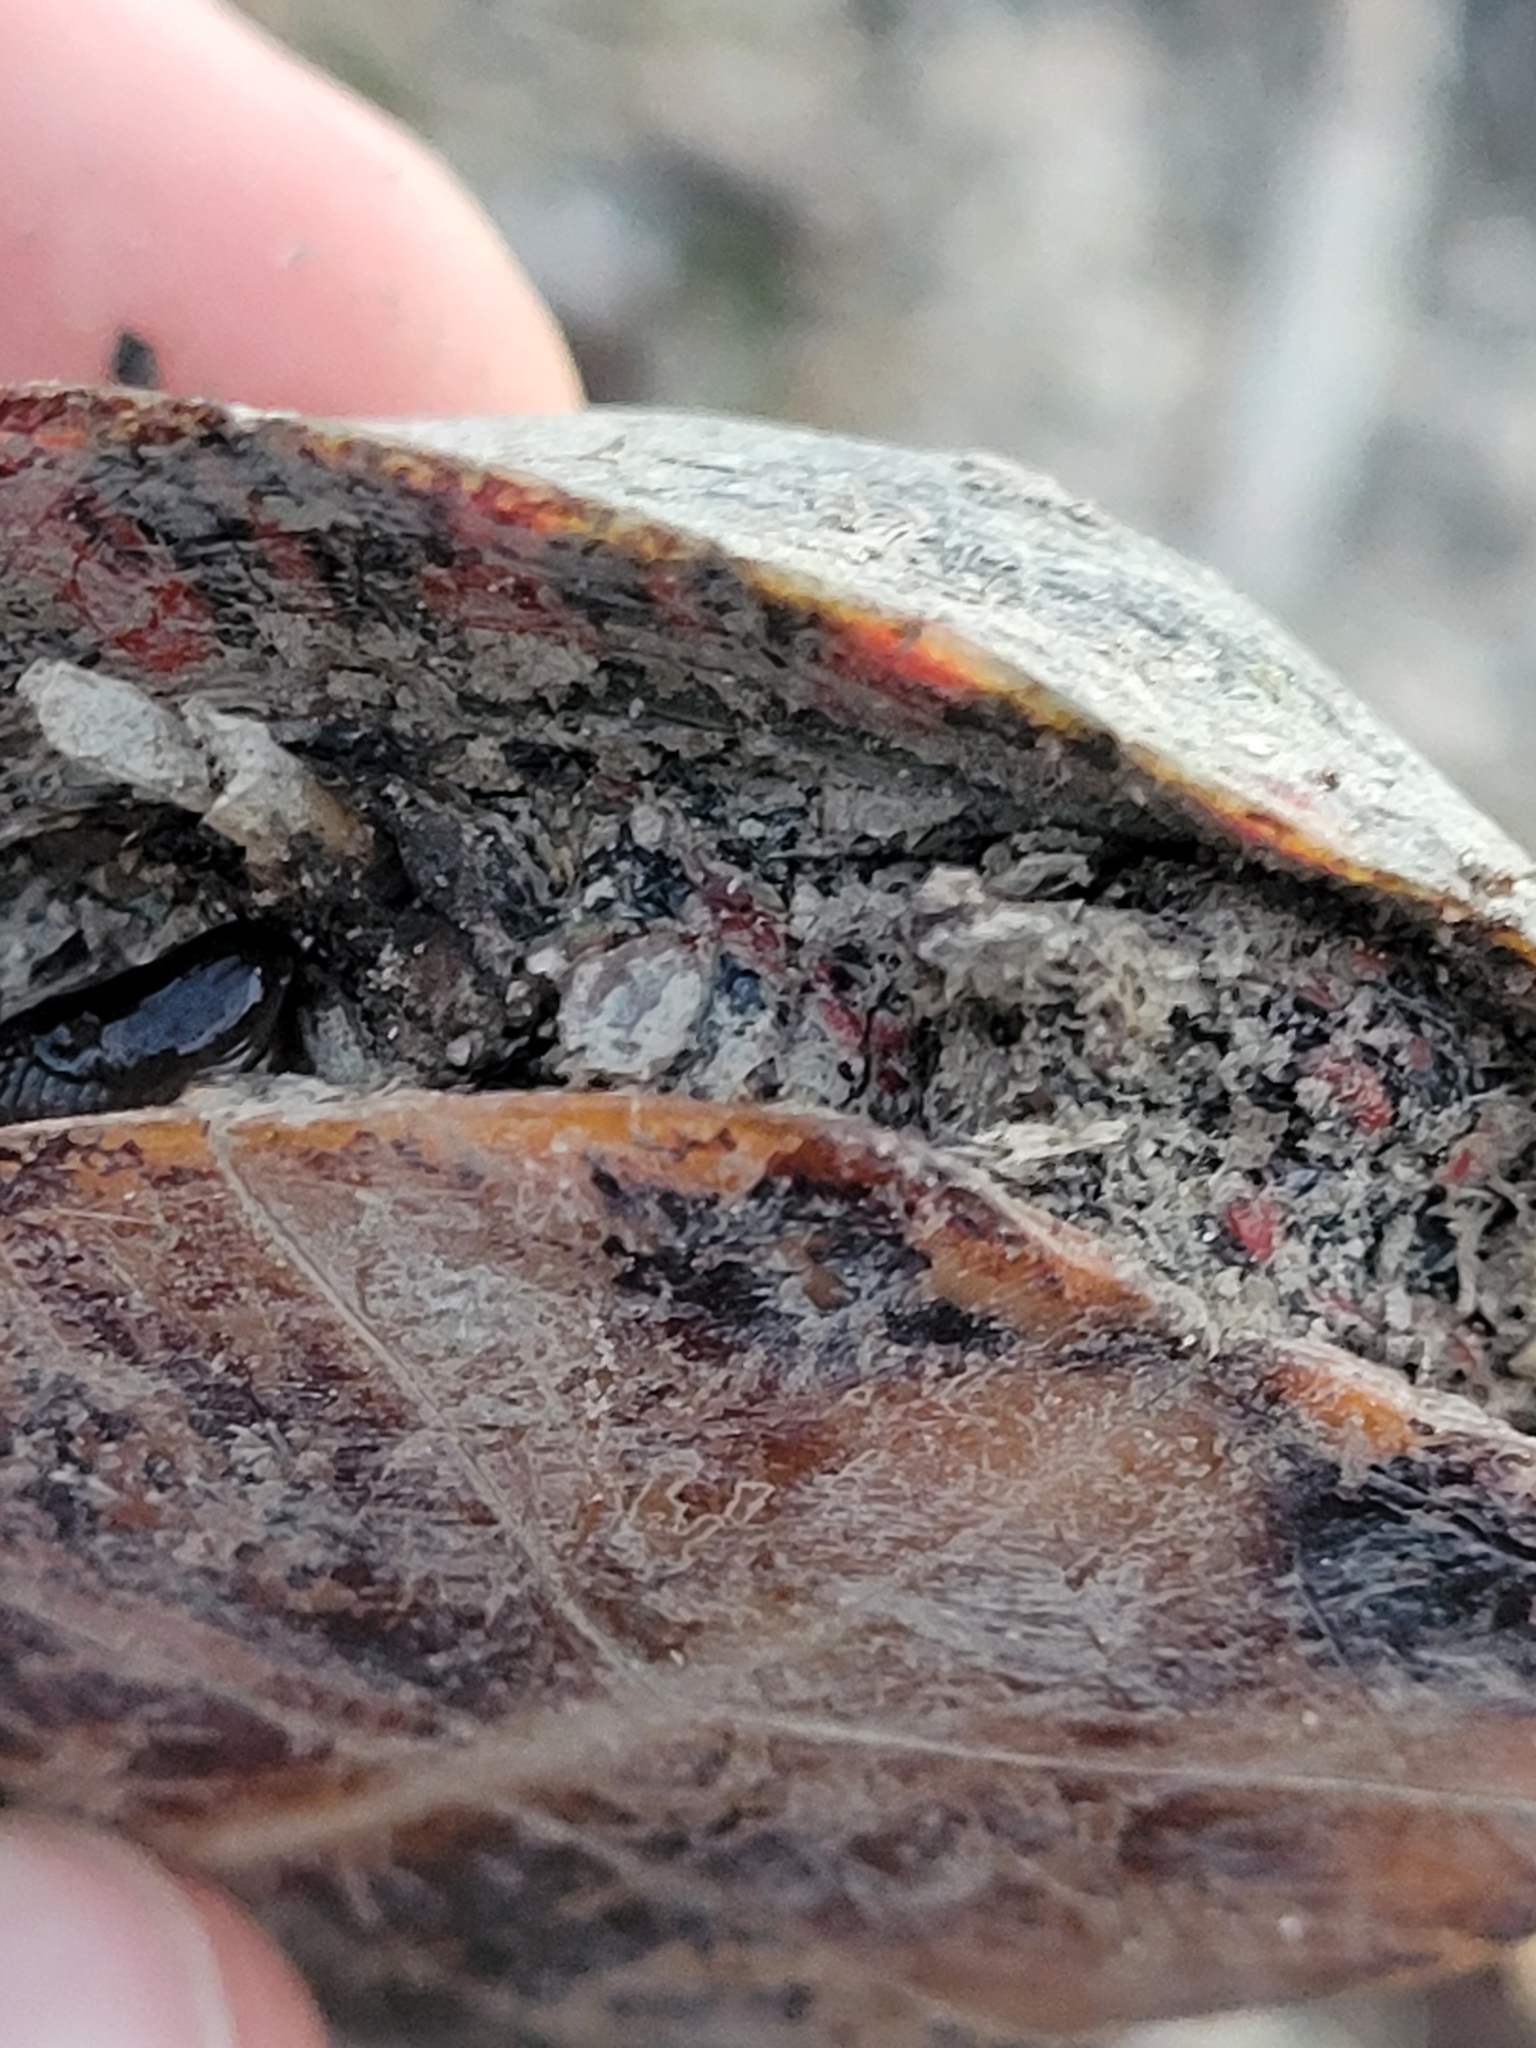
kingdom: Animalia
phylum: Chordata
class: Testudines
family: Emydidae
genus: Chrysemys
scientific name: Chrysemys picta
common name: Painted turtle
